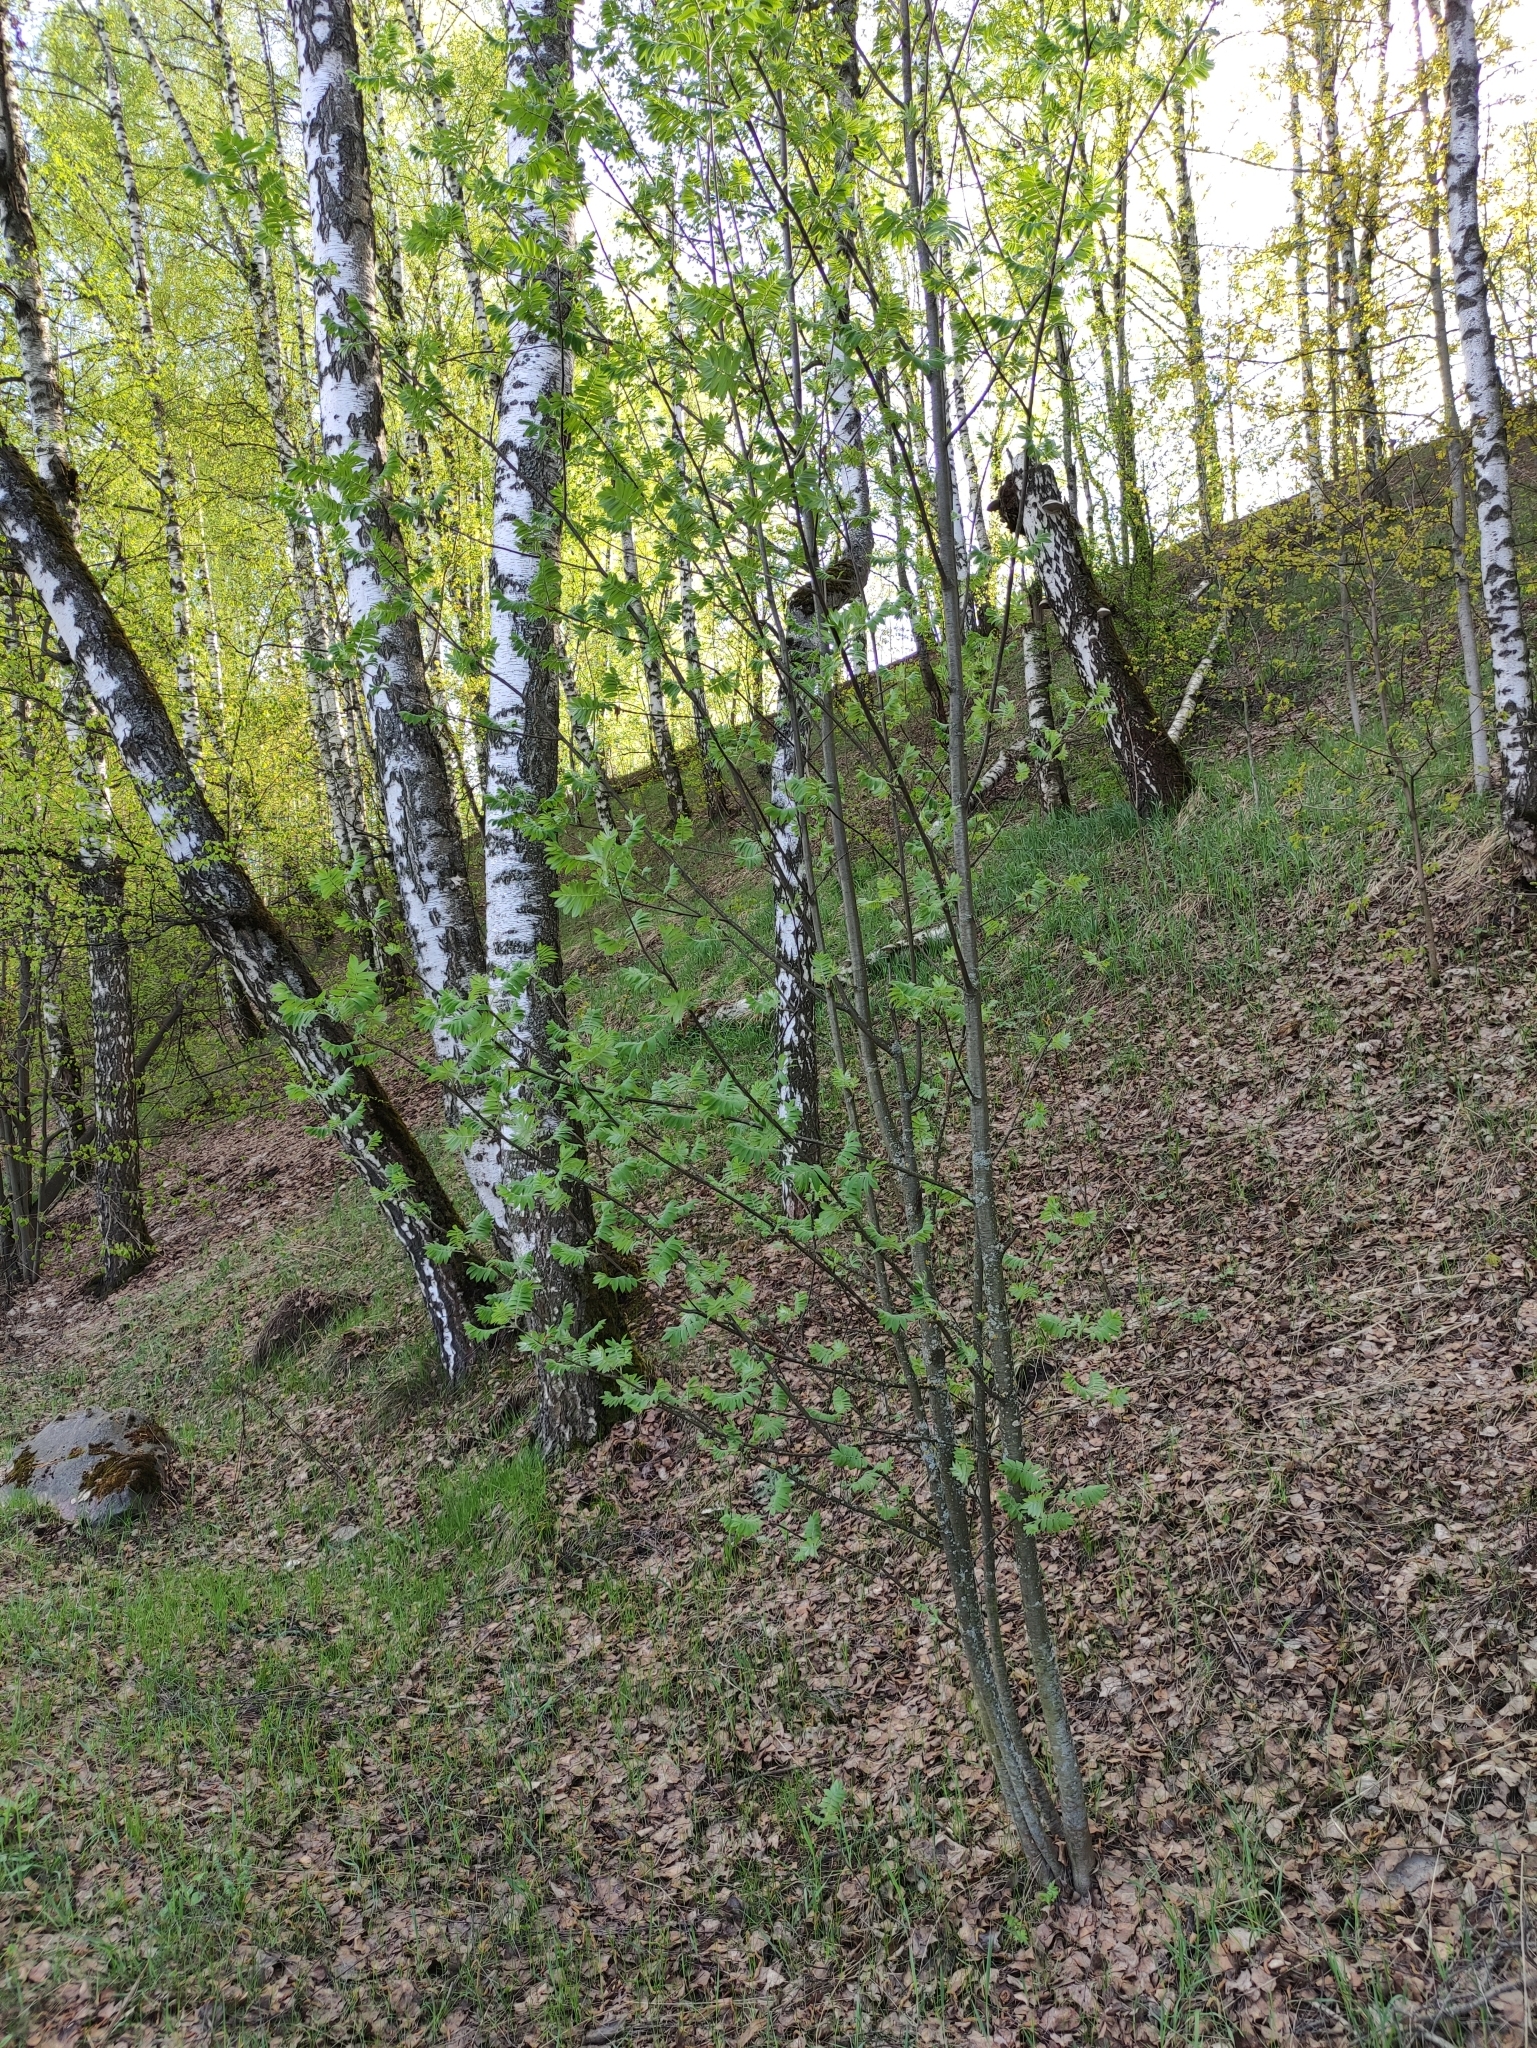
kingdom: Plantae
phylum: Tracheophyta
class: Magnoliopsida
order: Rosales
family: Rosaceae
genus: Sorbus
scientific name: Sorbus aucuparia
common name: Rowan
